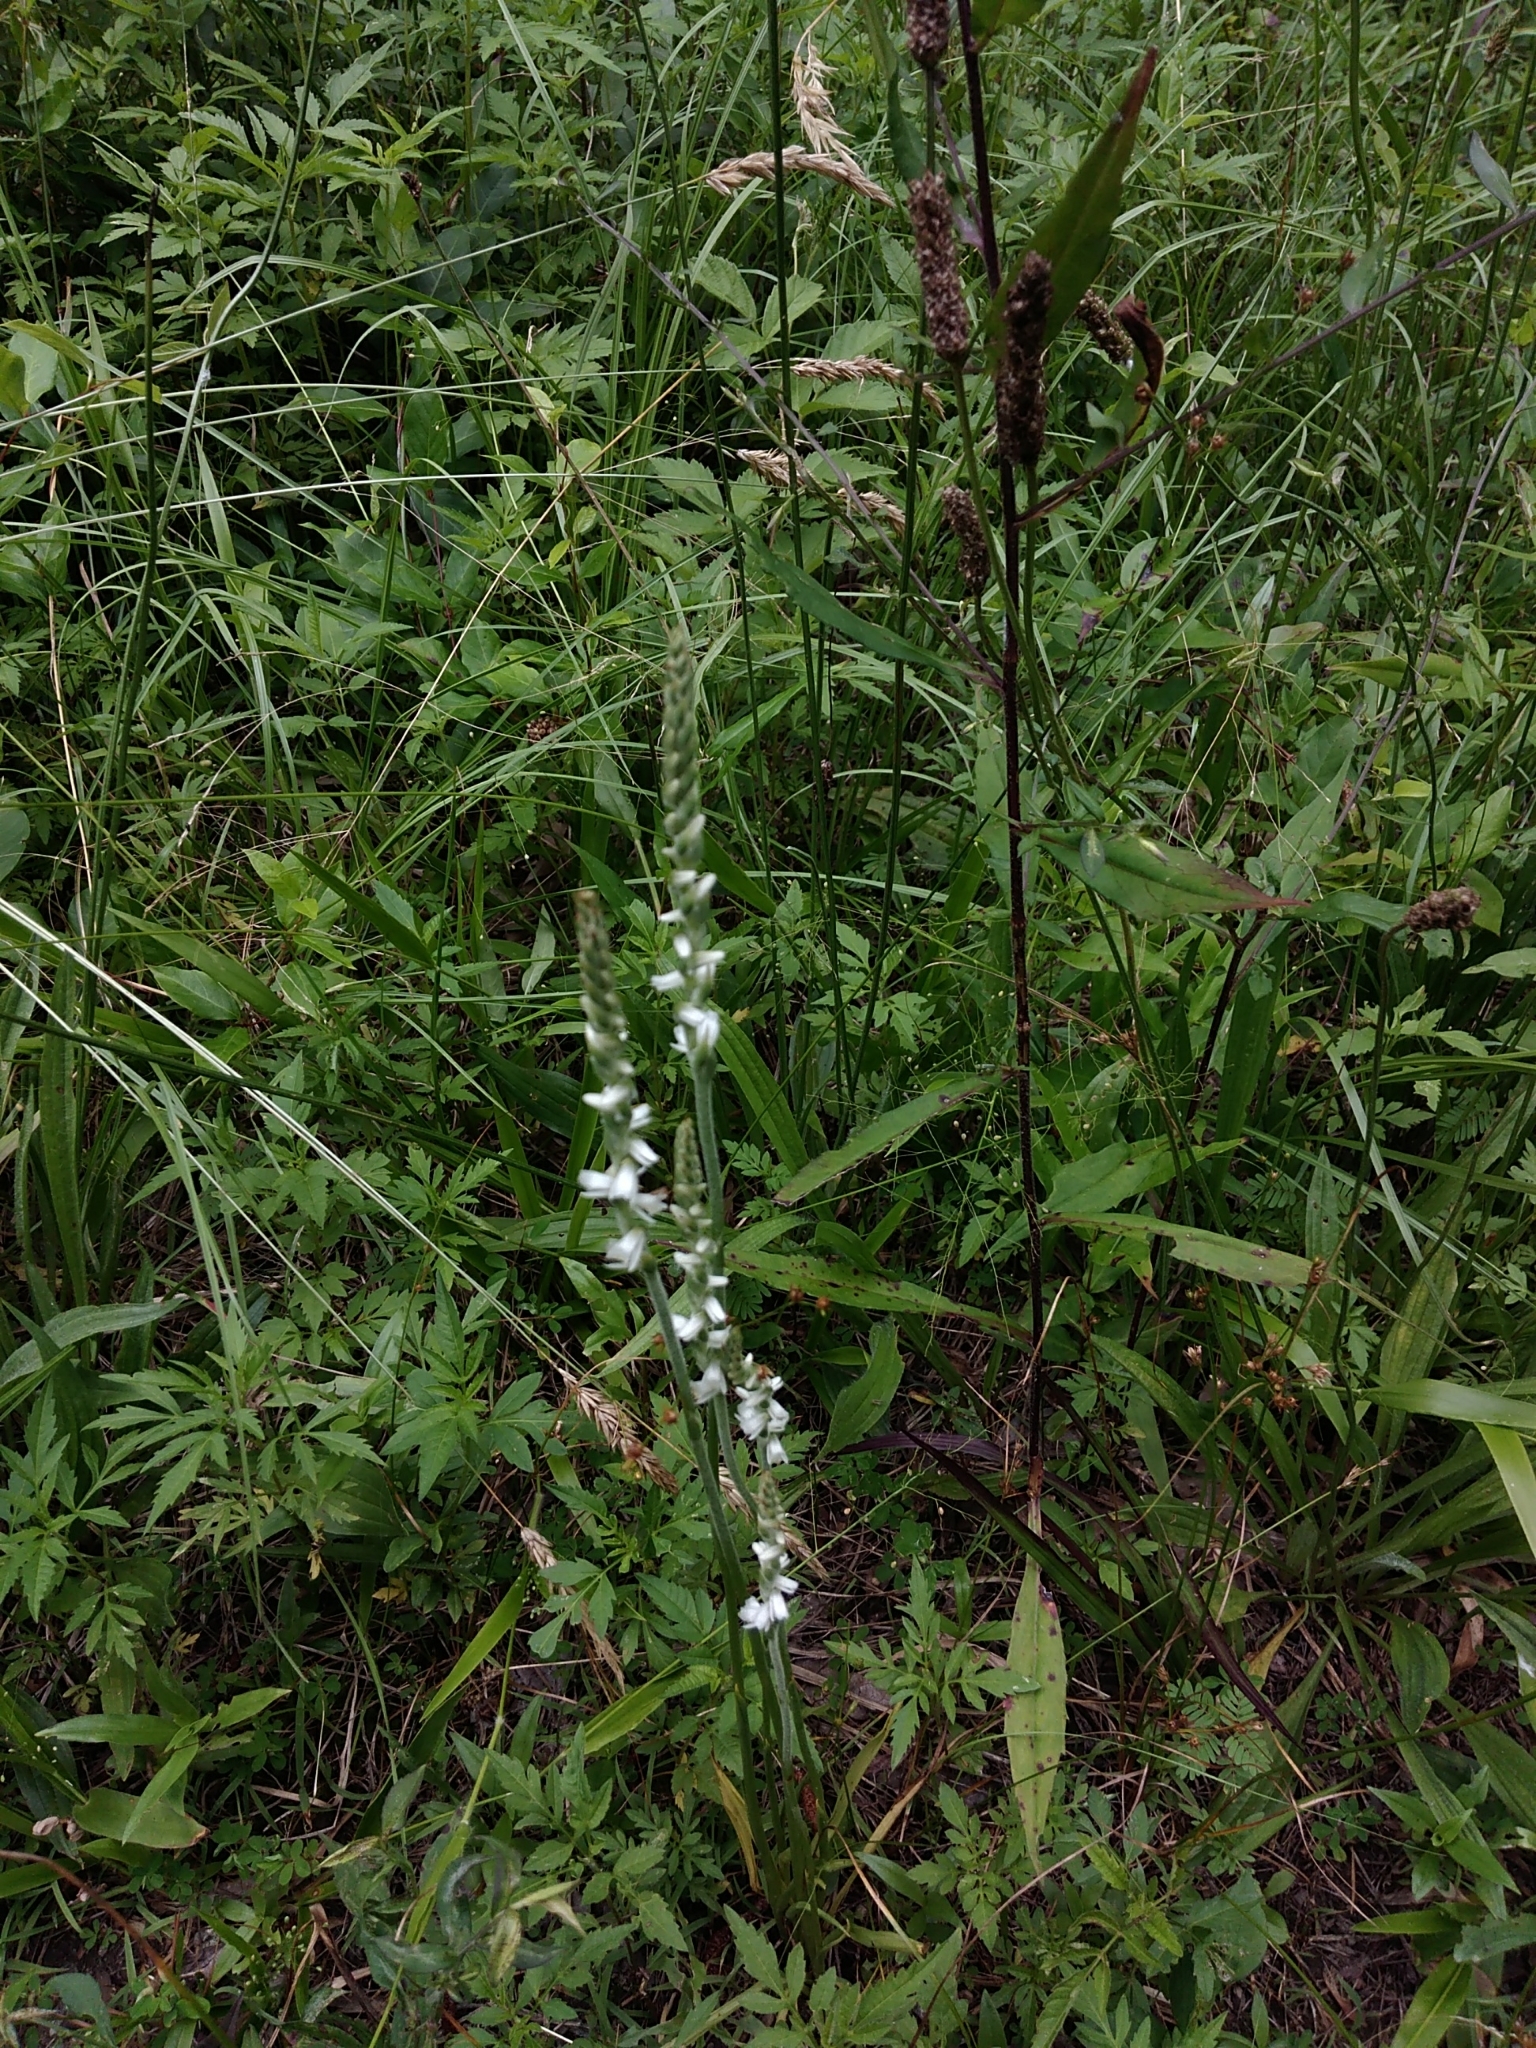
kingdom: Plantae
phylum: Tracheophyta
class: Liliopsida
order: Asparagales
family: Orchidaceae
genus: Spiranthes
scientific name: Spiranthes vernalis
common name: Spring ladies'-tresses
